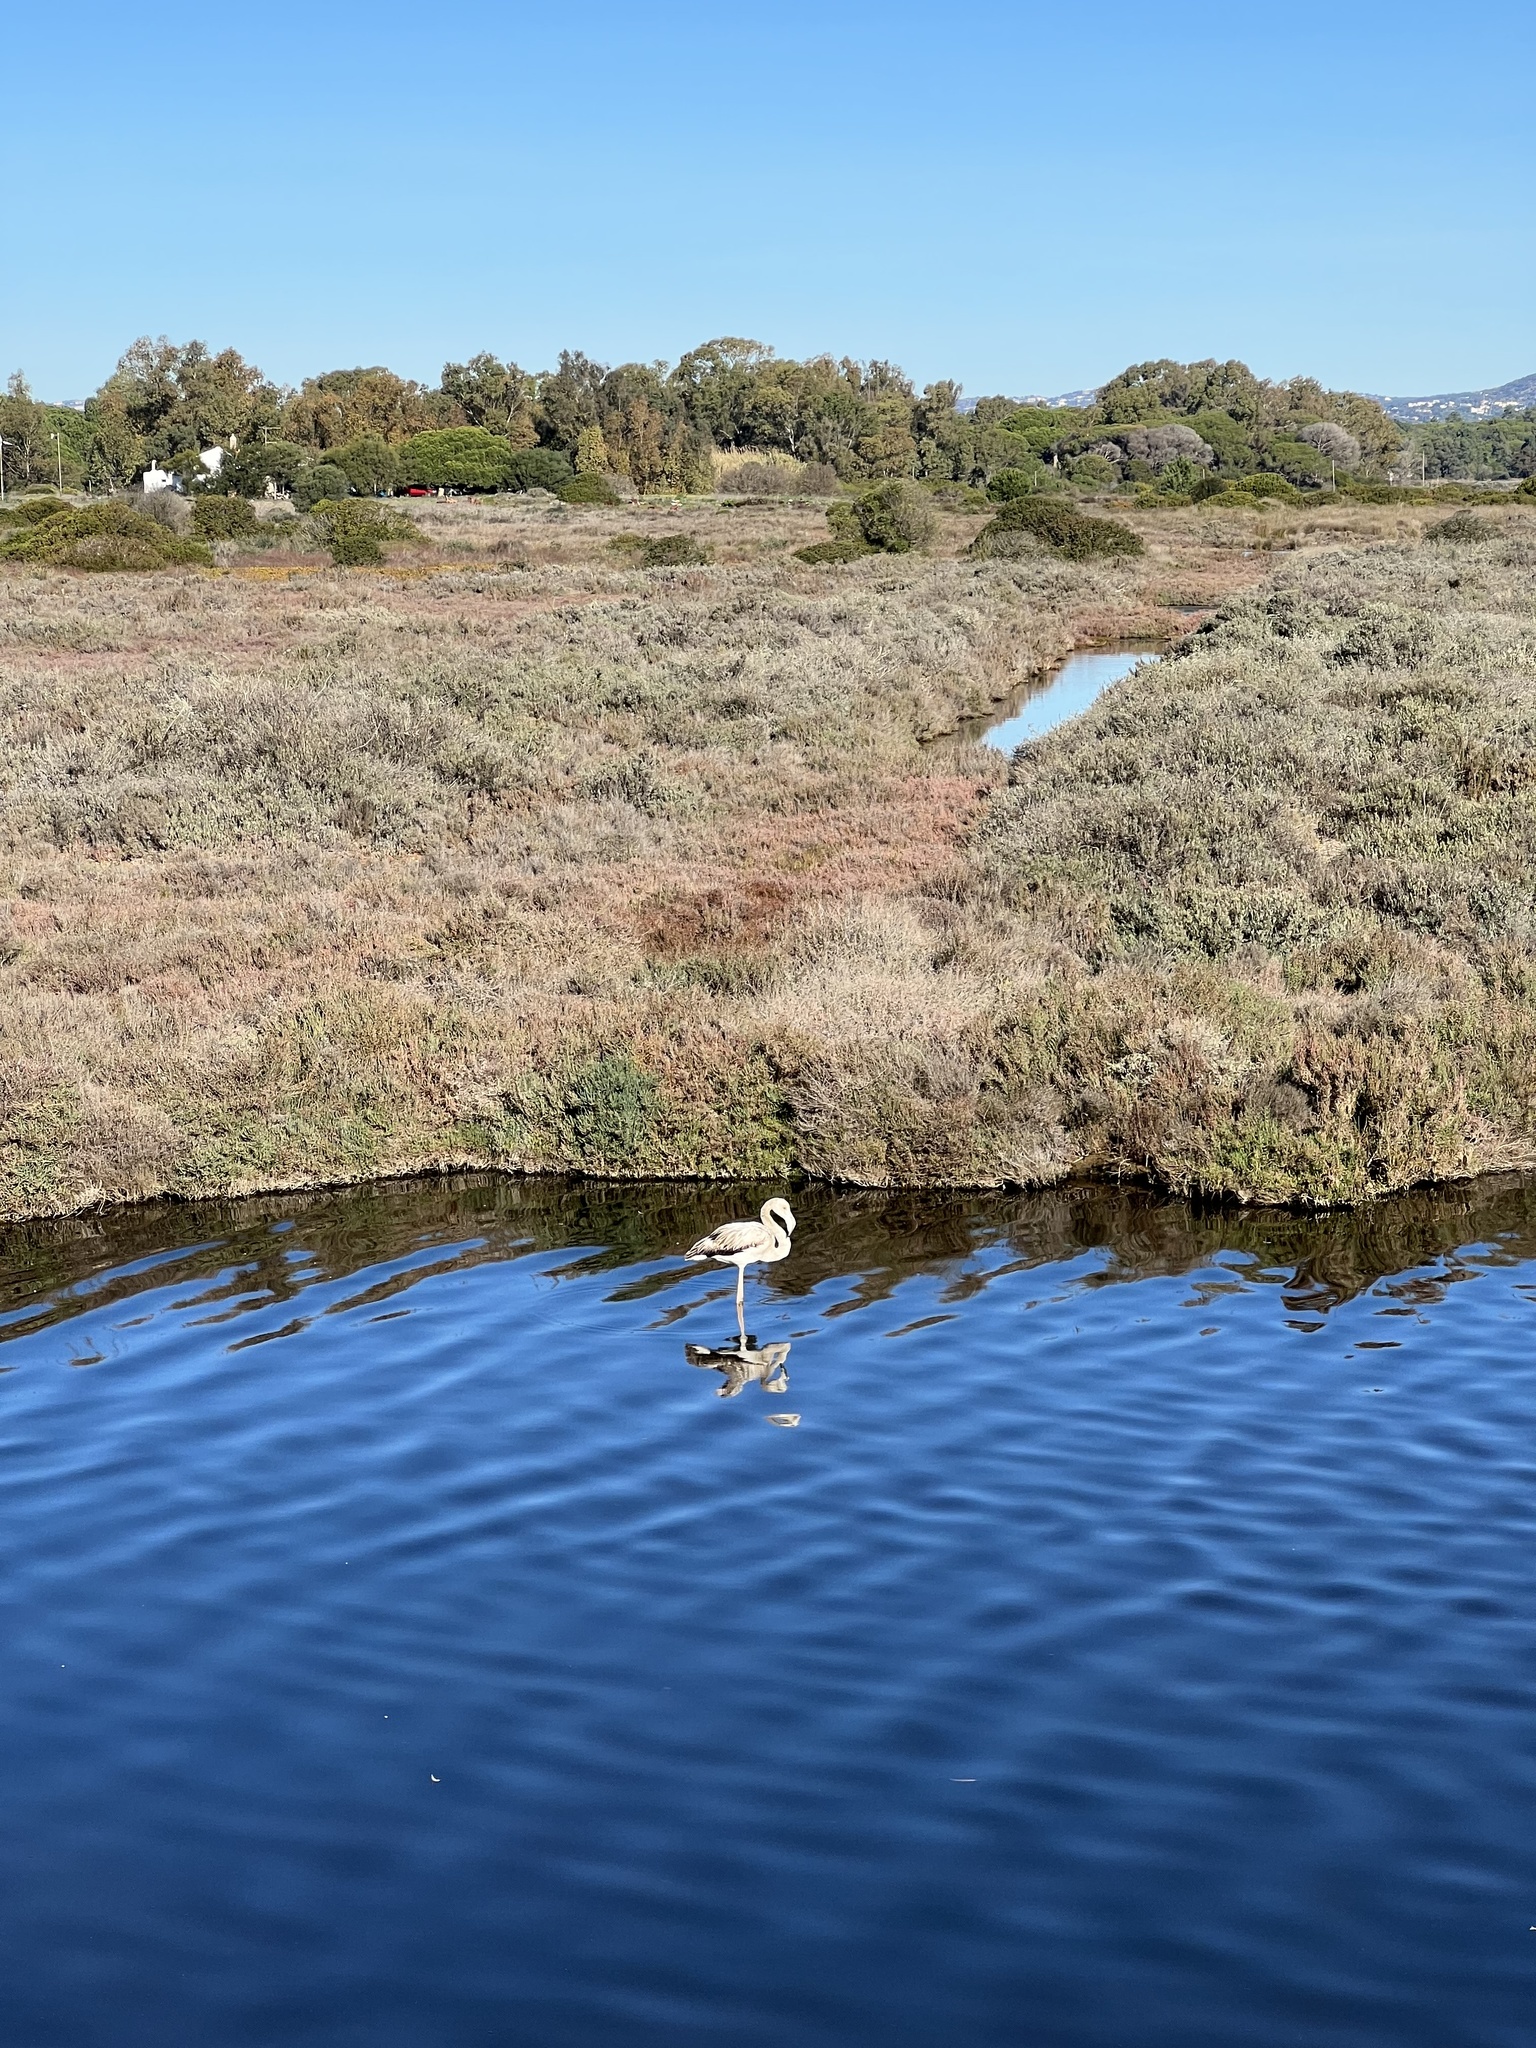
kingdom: Animalia
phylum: Chordata
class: Aves
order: Phoenicopteriformes
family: Phoenicopteridae
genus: Phoenicopterus
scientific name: Phoenicopterus roseus
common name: Greater flamingo
